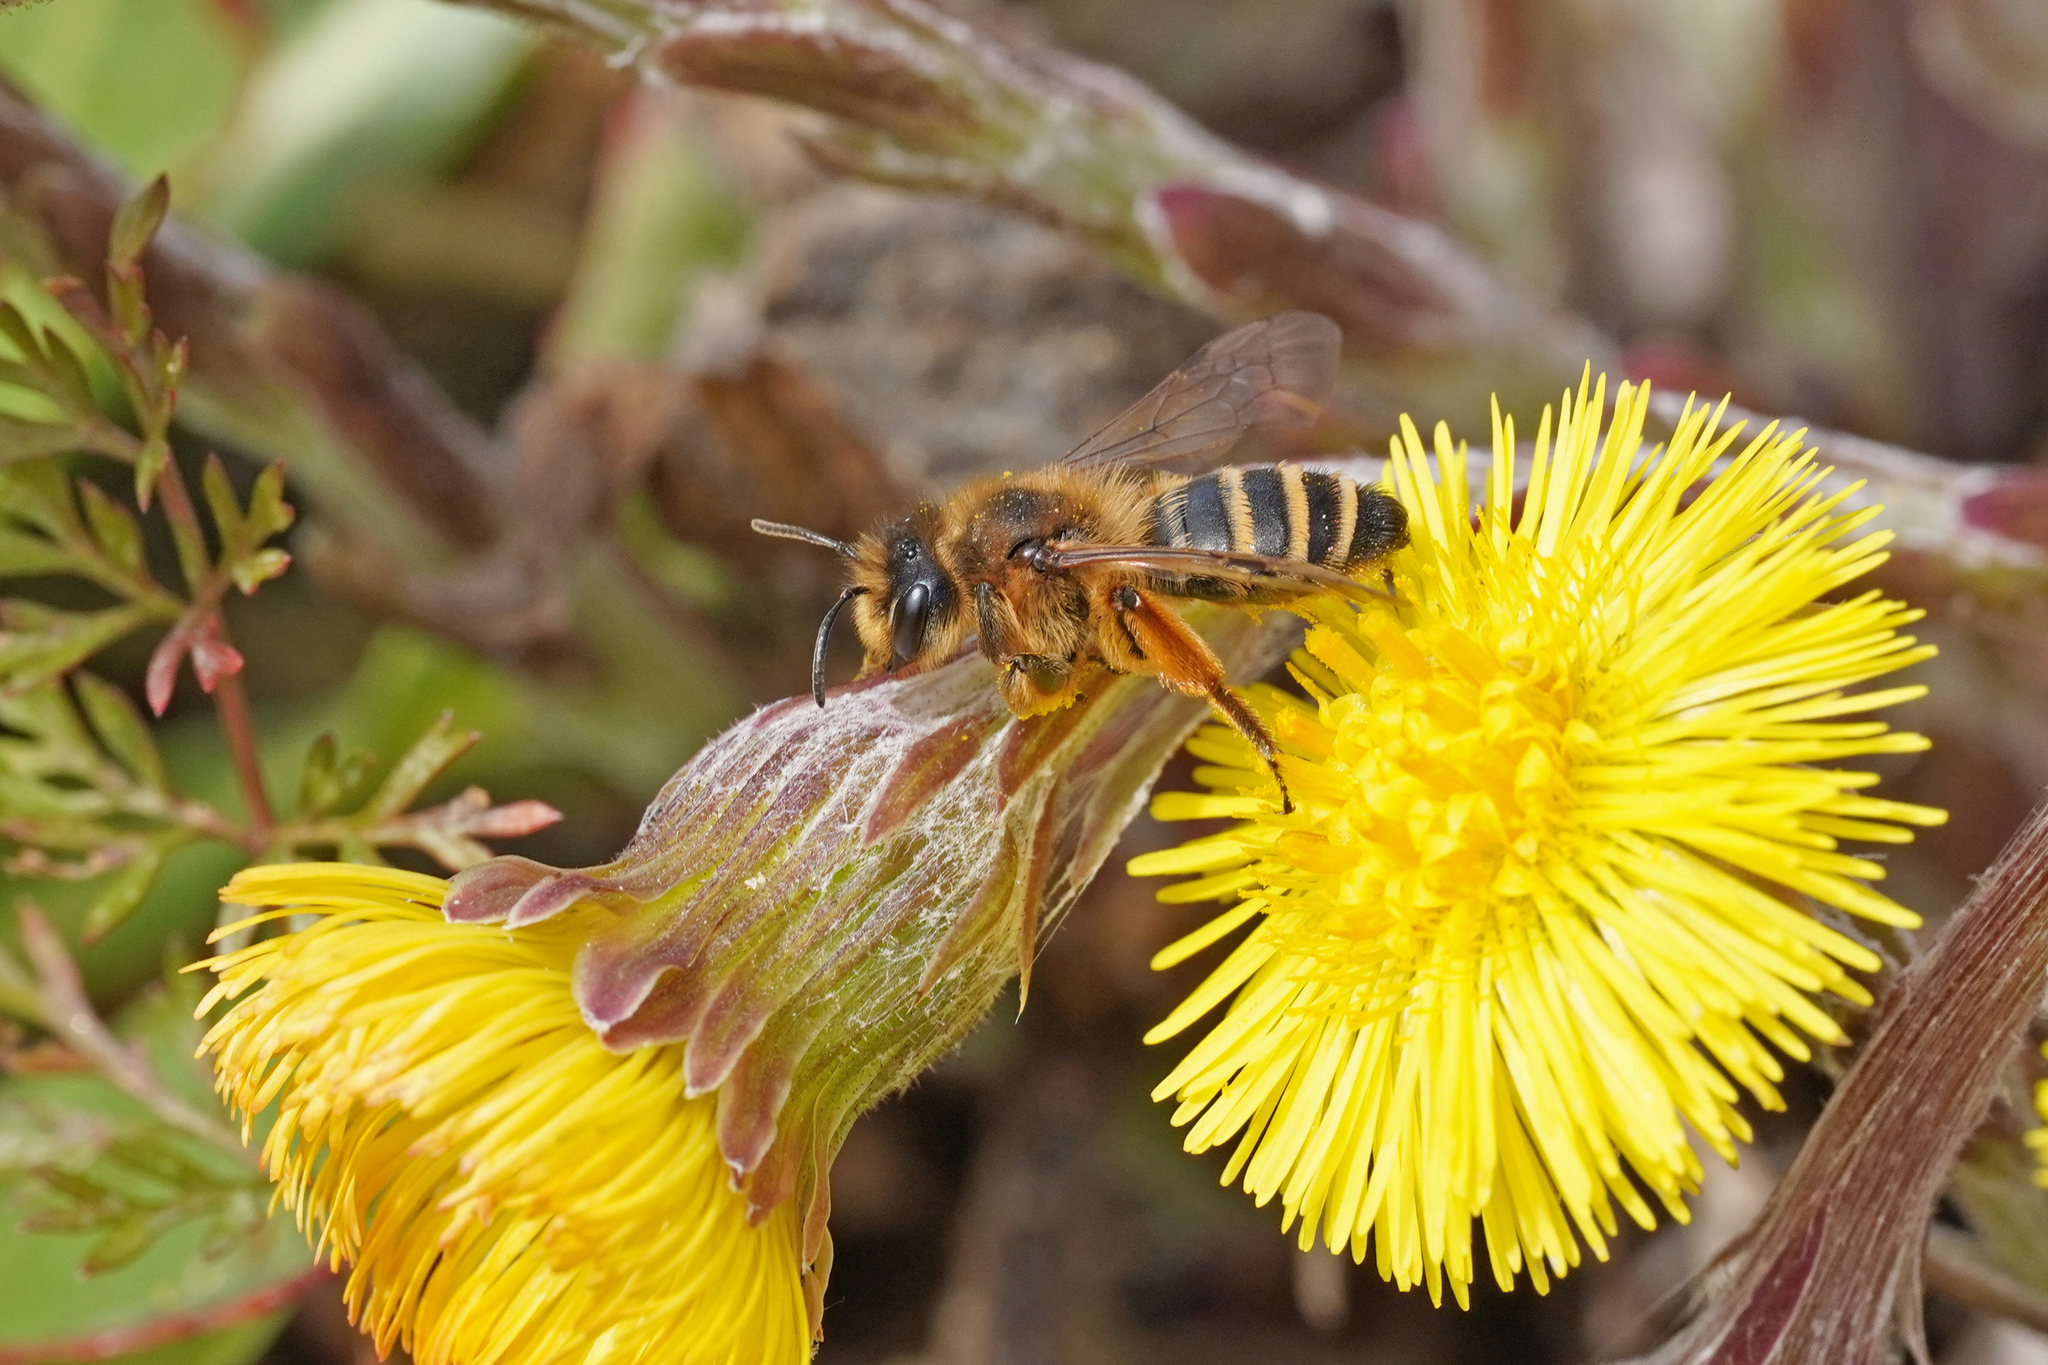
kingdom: Animalia
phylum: Arthropoda
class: Insecta
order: Hymenoptera
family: Andrenidae
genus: Andrena
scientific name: Andrena flavipes
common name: Yellow-legged mining bee
